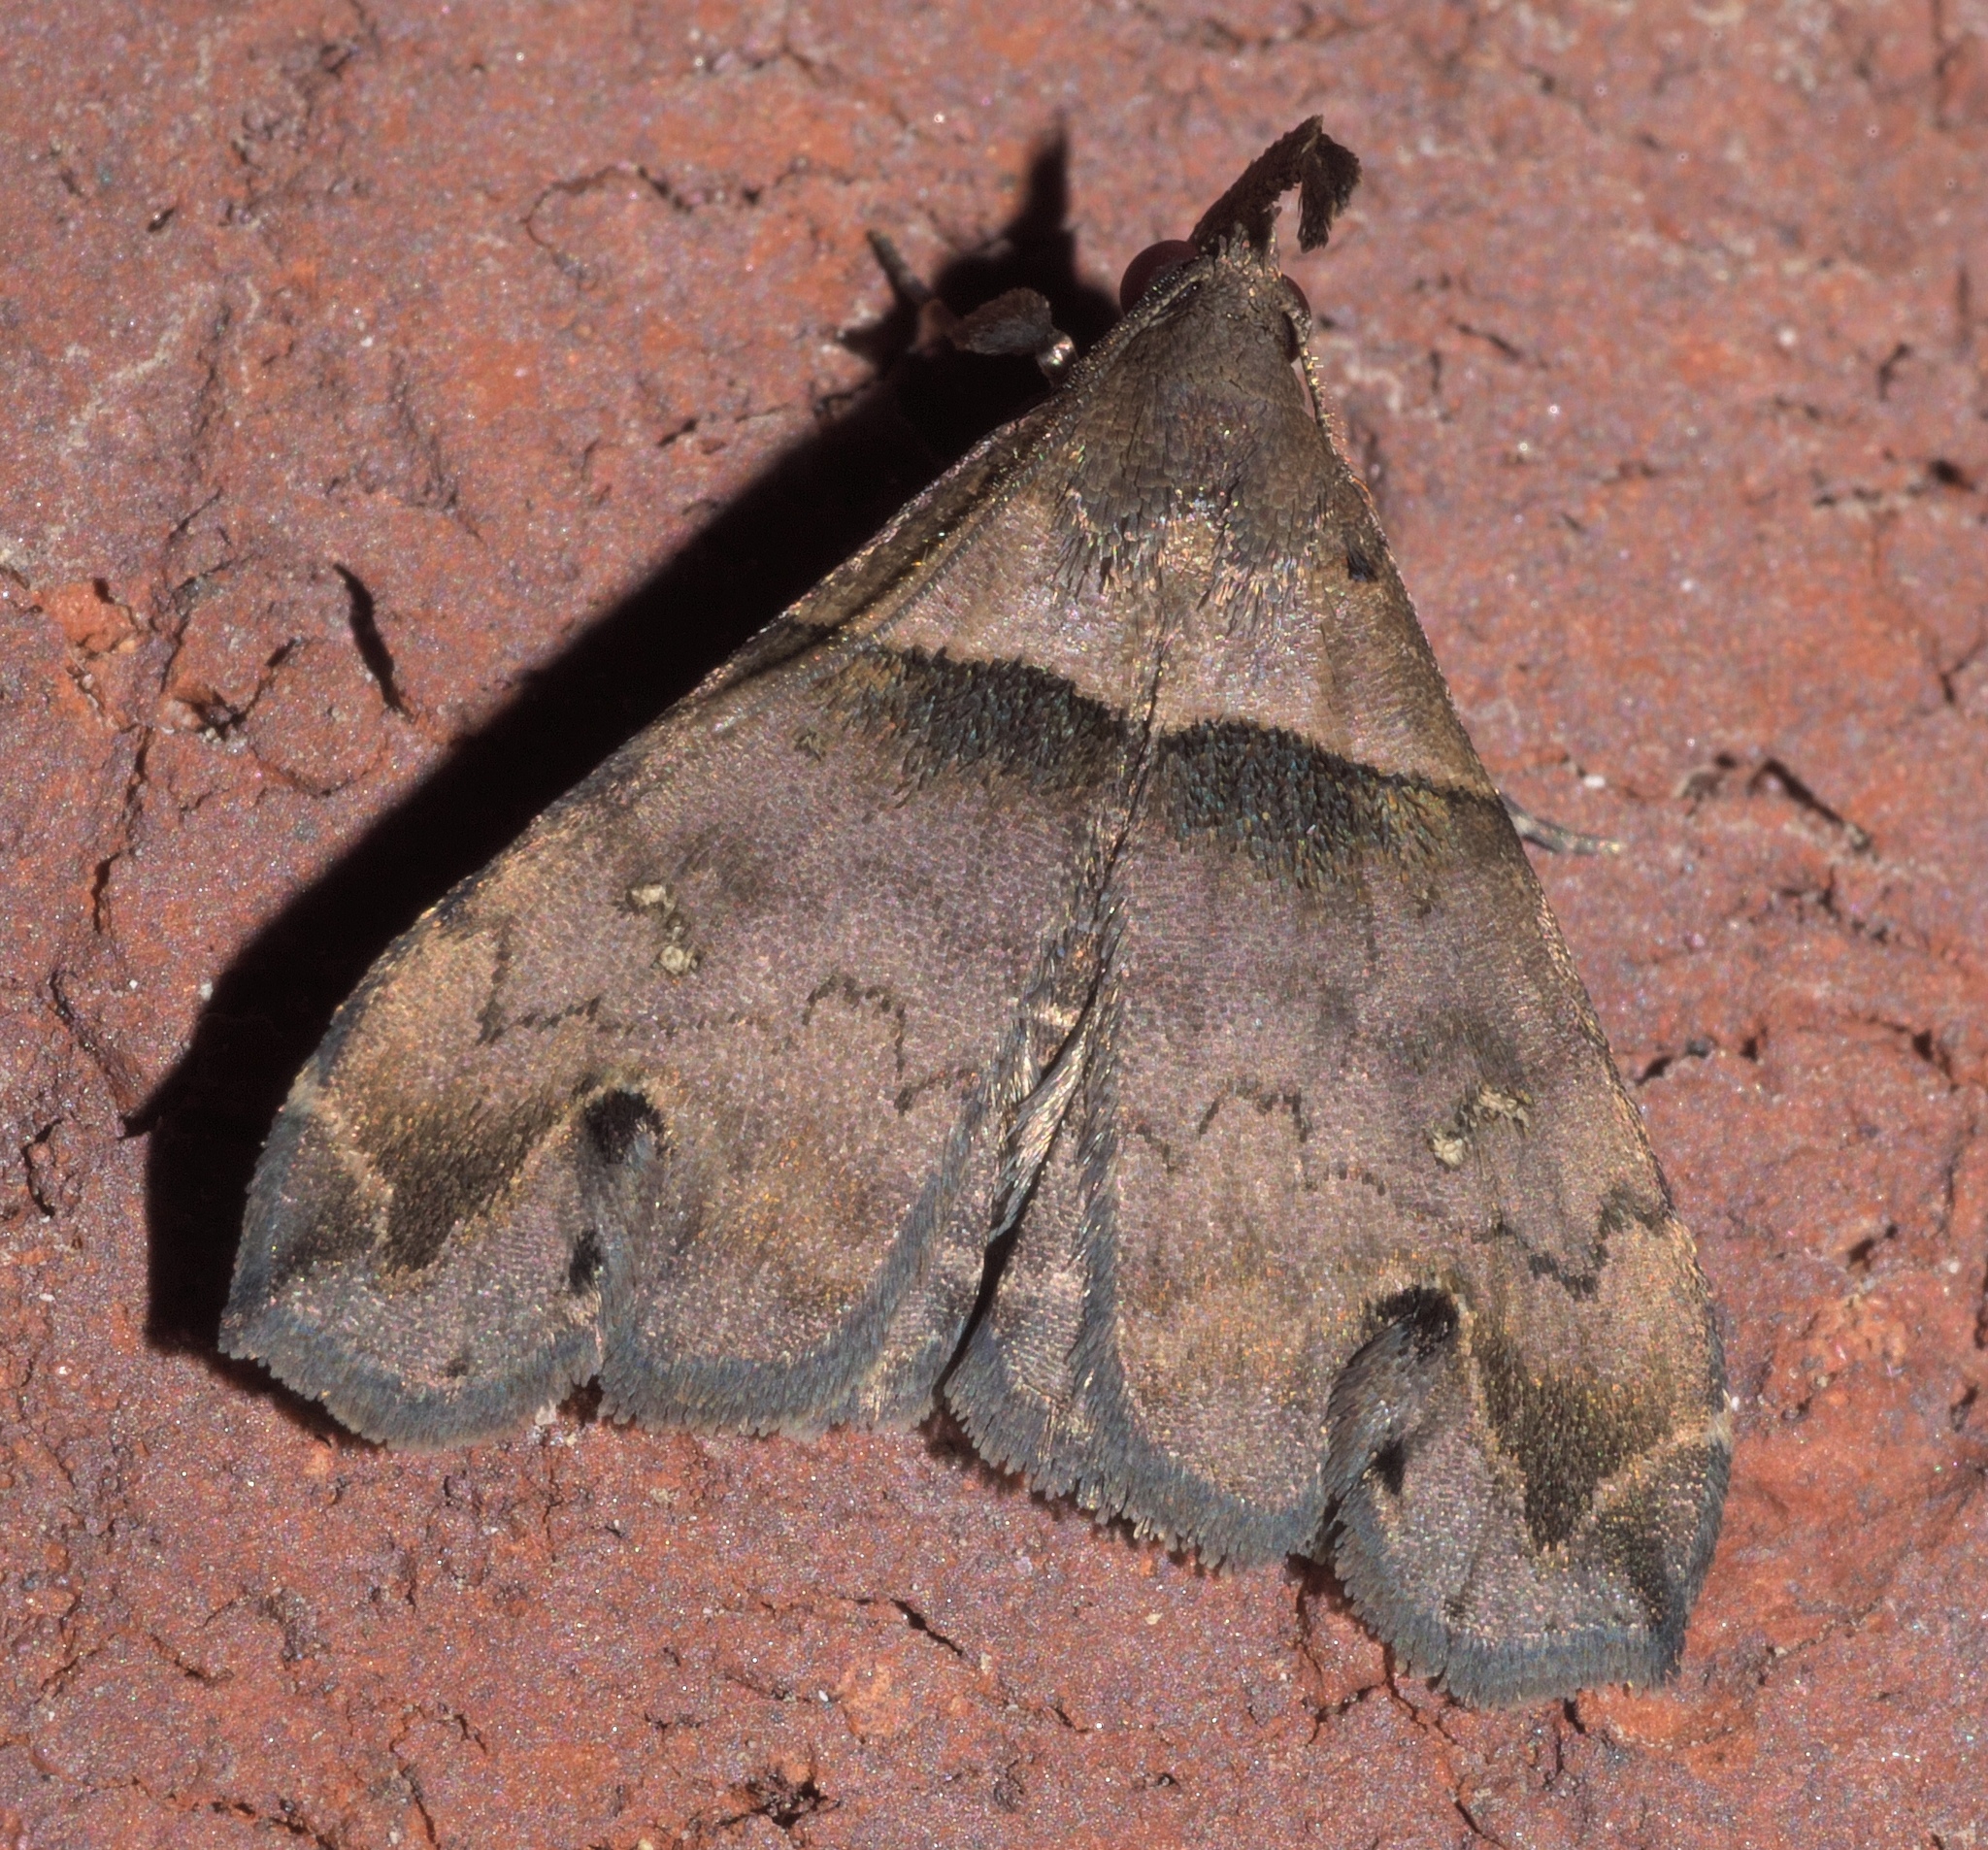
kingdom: Animalia
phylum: Arthropoda
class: Insecta
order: Lepidoptera
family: Erebidae
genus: Lascoria
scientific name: Lascoria ambigualis
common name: Ambiguous moth
